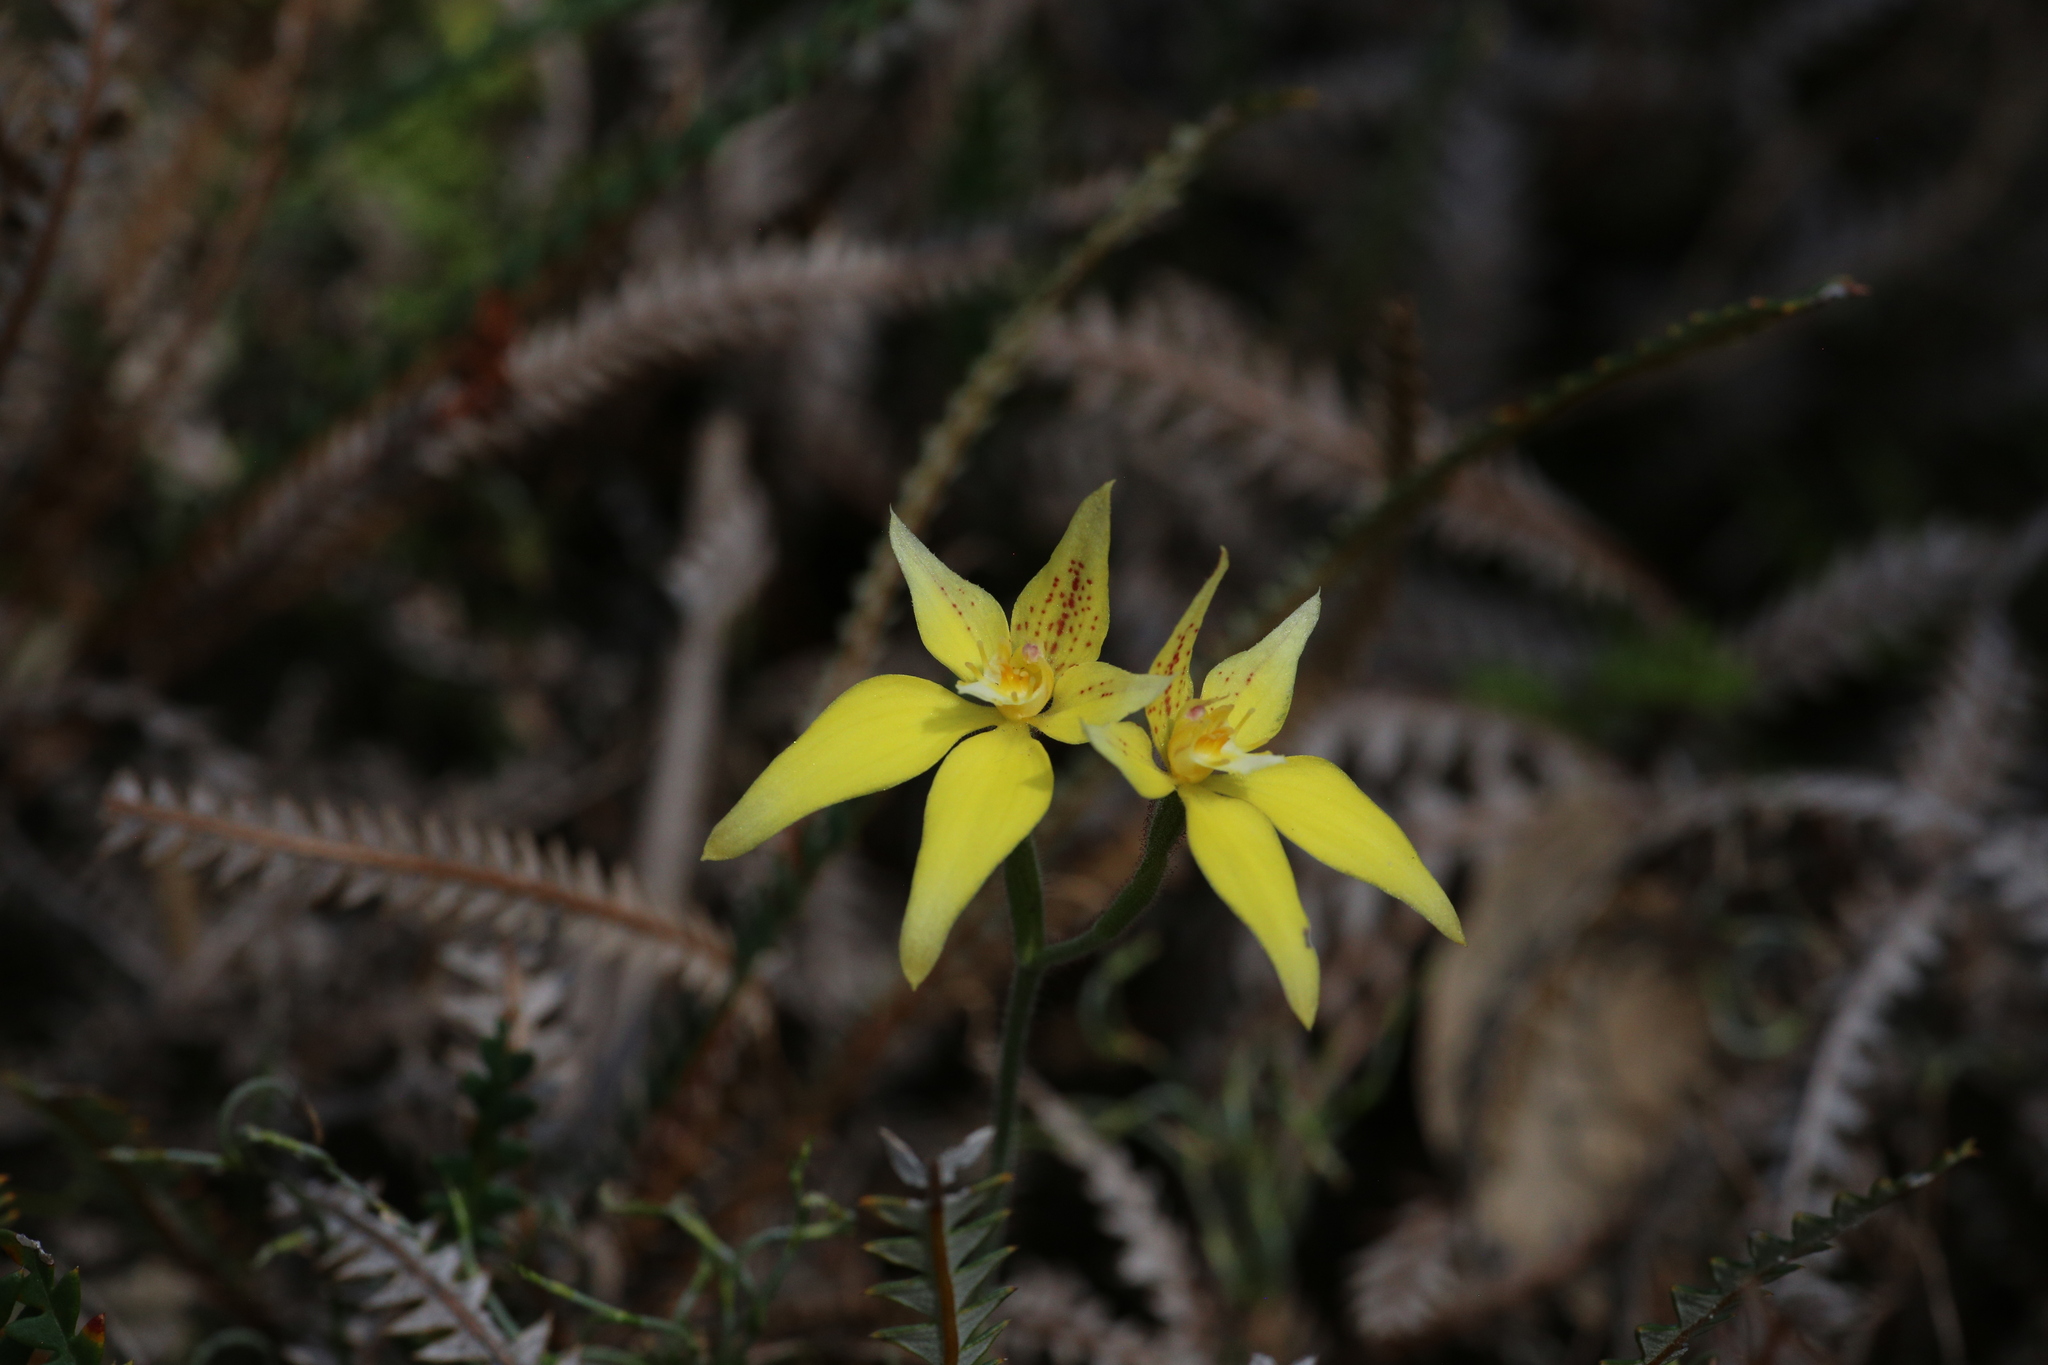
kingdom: Plantae
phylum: Tracheophyta
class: Liliopsida
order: Asparagales
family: Orchidaceae
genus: Caladenia
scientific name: Caladenia flava
